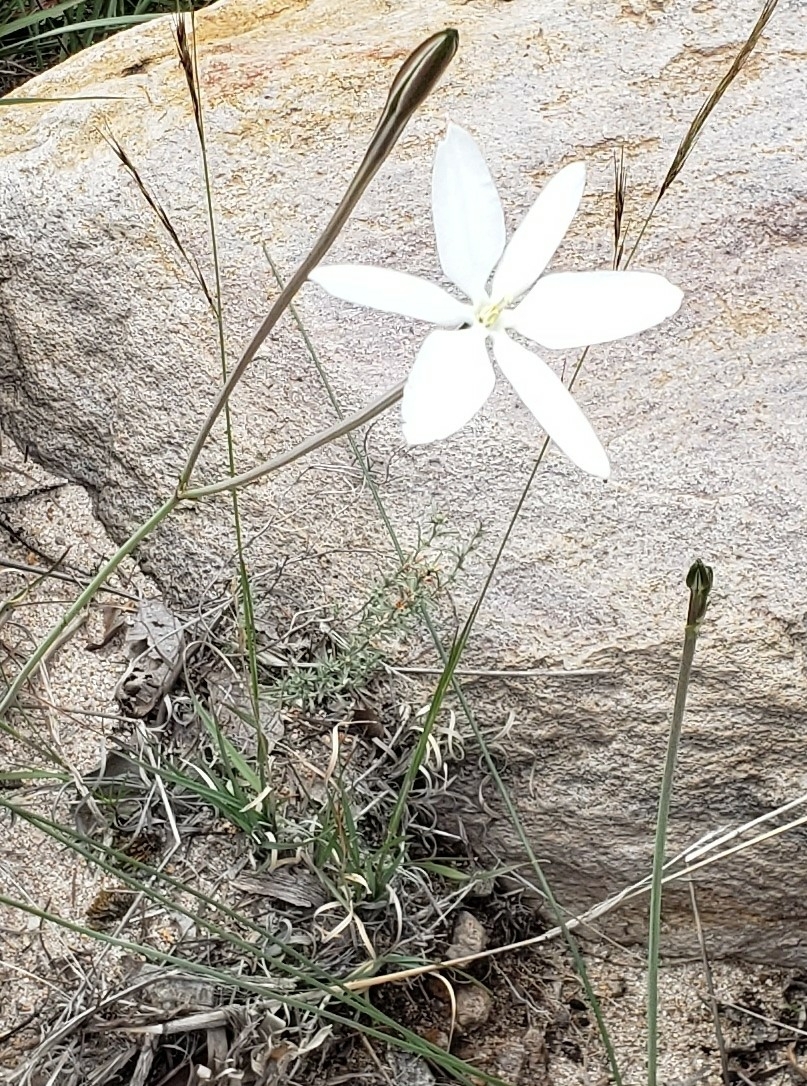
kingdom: Plantae
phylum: Tracheophyta
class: Liliopsida
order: Asparagales
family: Asparagaceae
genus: Milla
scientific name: Milla biflora
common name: Mexican-star
